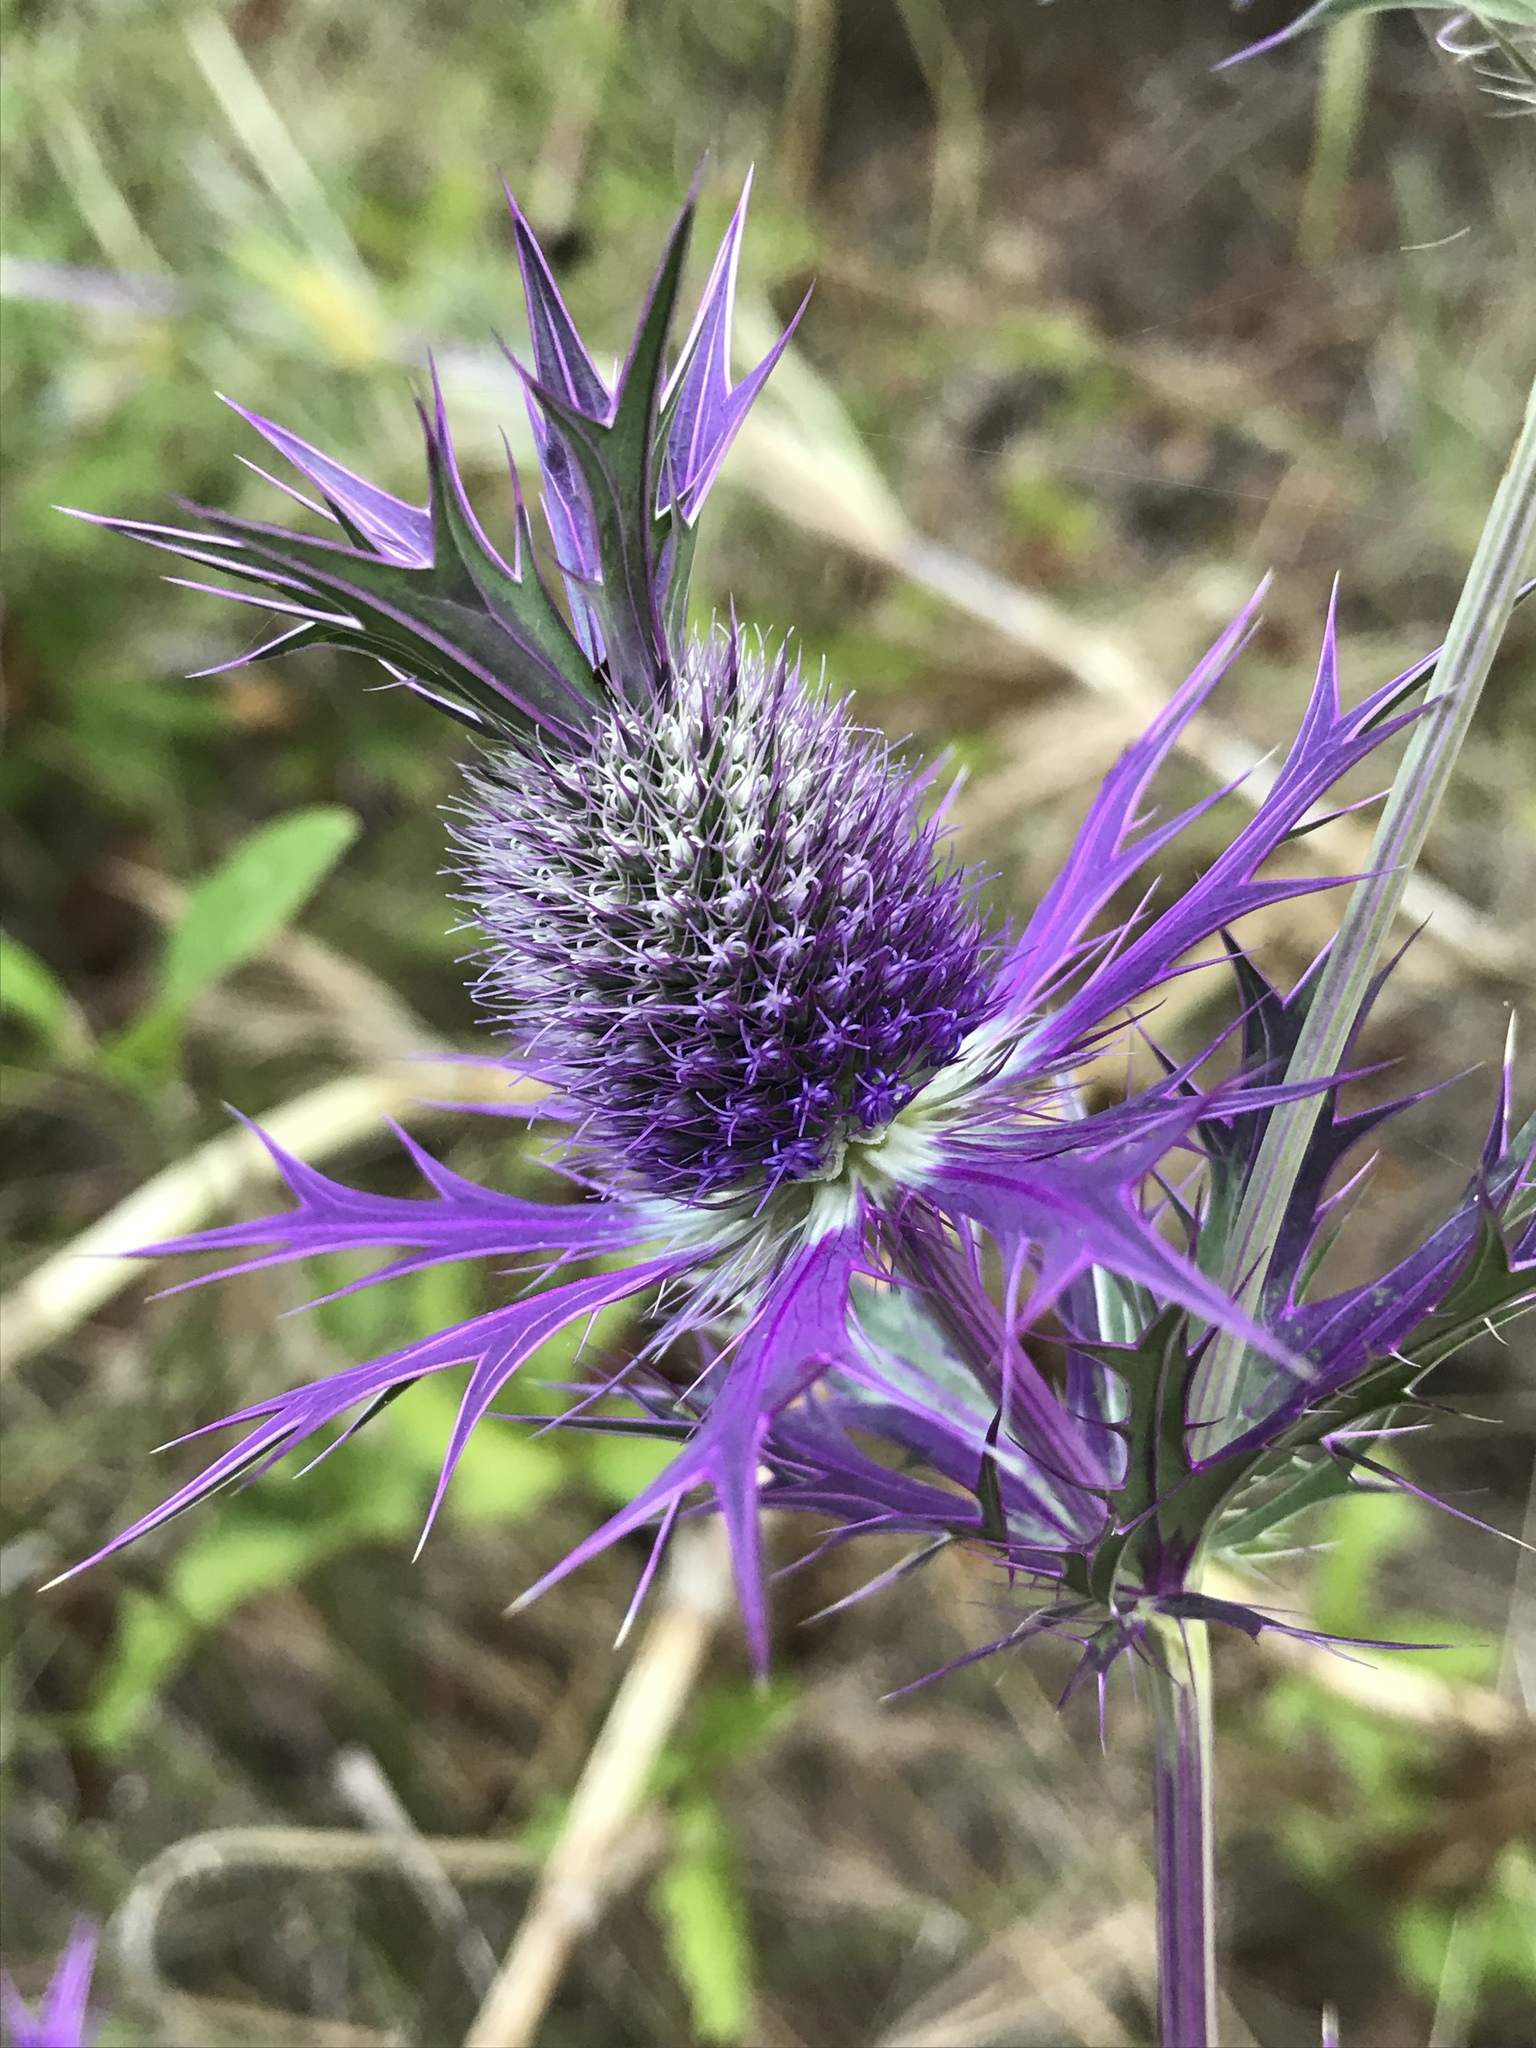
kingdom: Plantae
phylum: Tracheophyta
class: Magnoliopsida
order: Apiales
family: Apiaceae
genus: Eryngium
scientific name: Eryngium leavenworthii
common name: Leavenworth's eryngo
